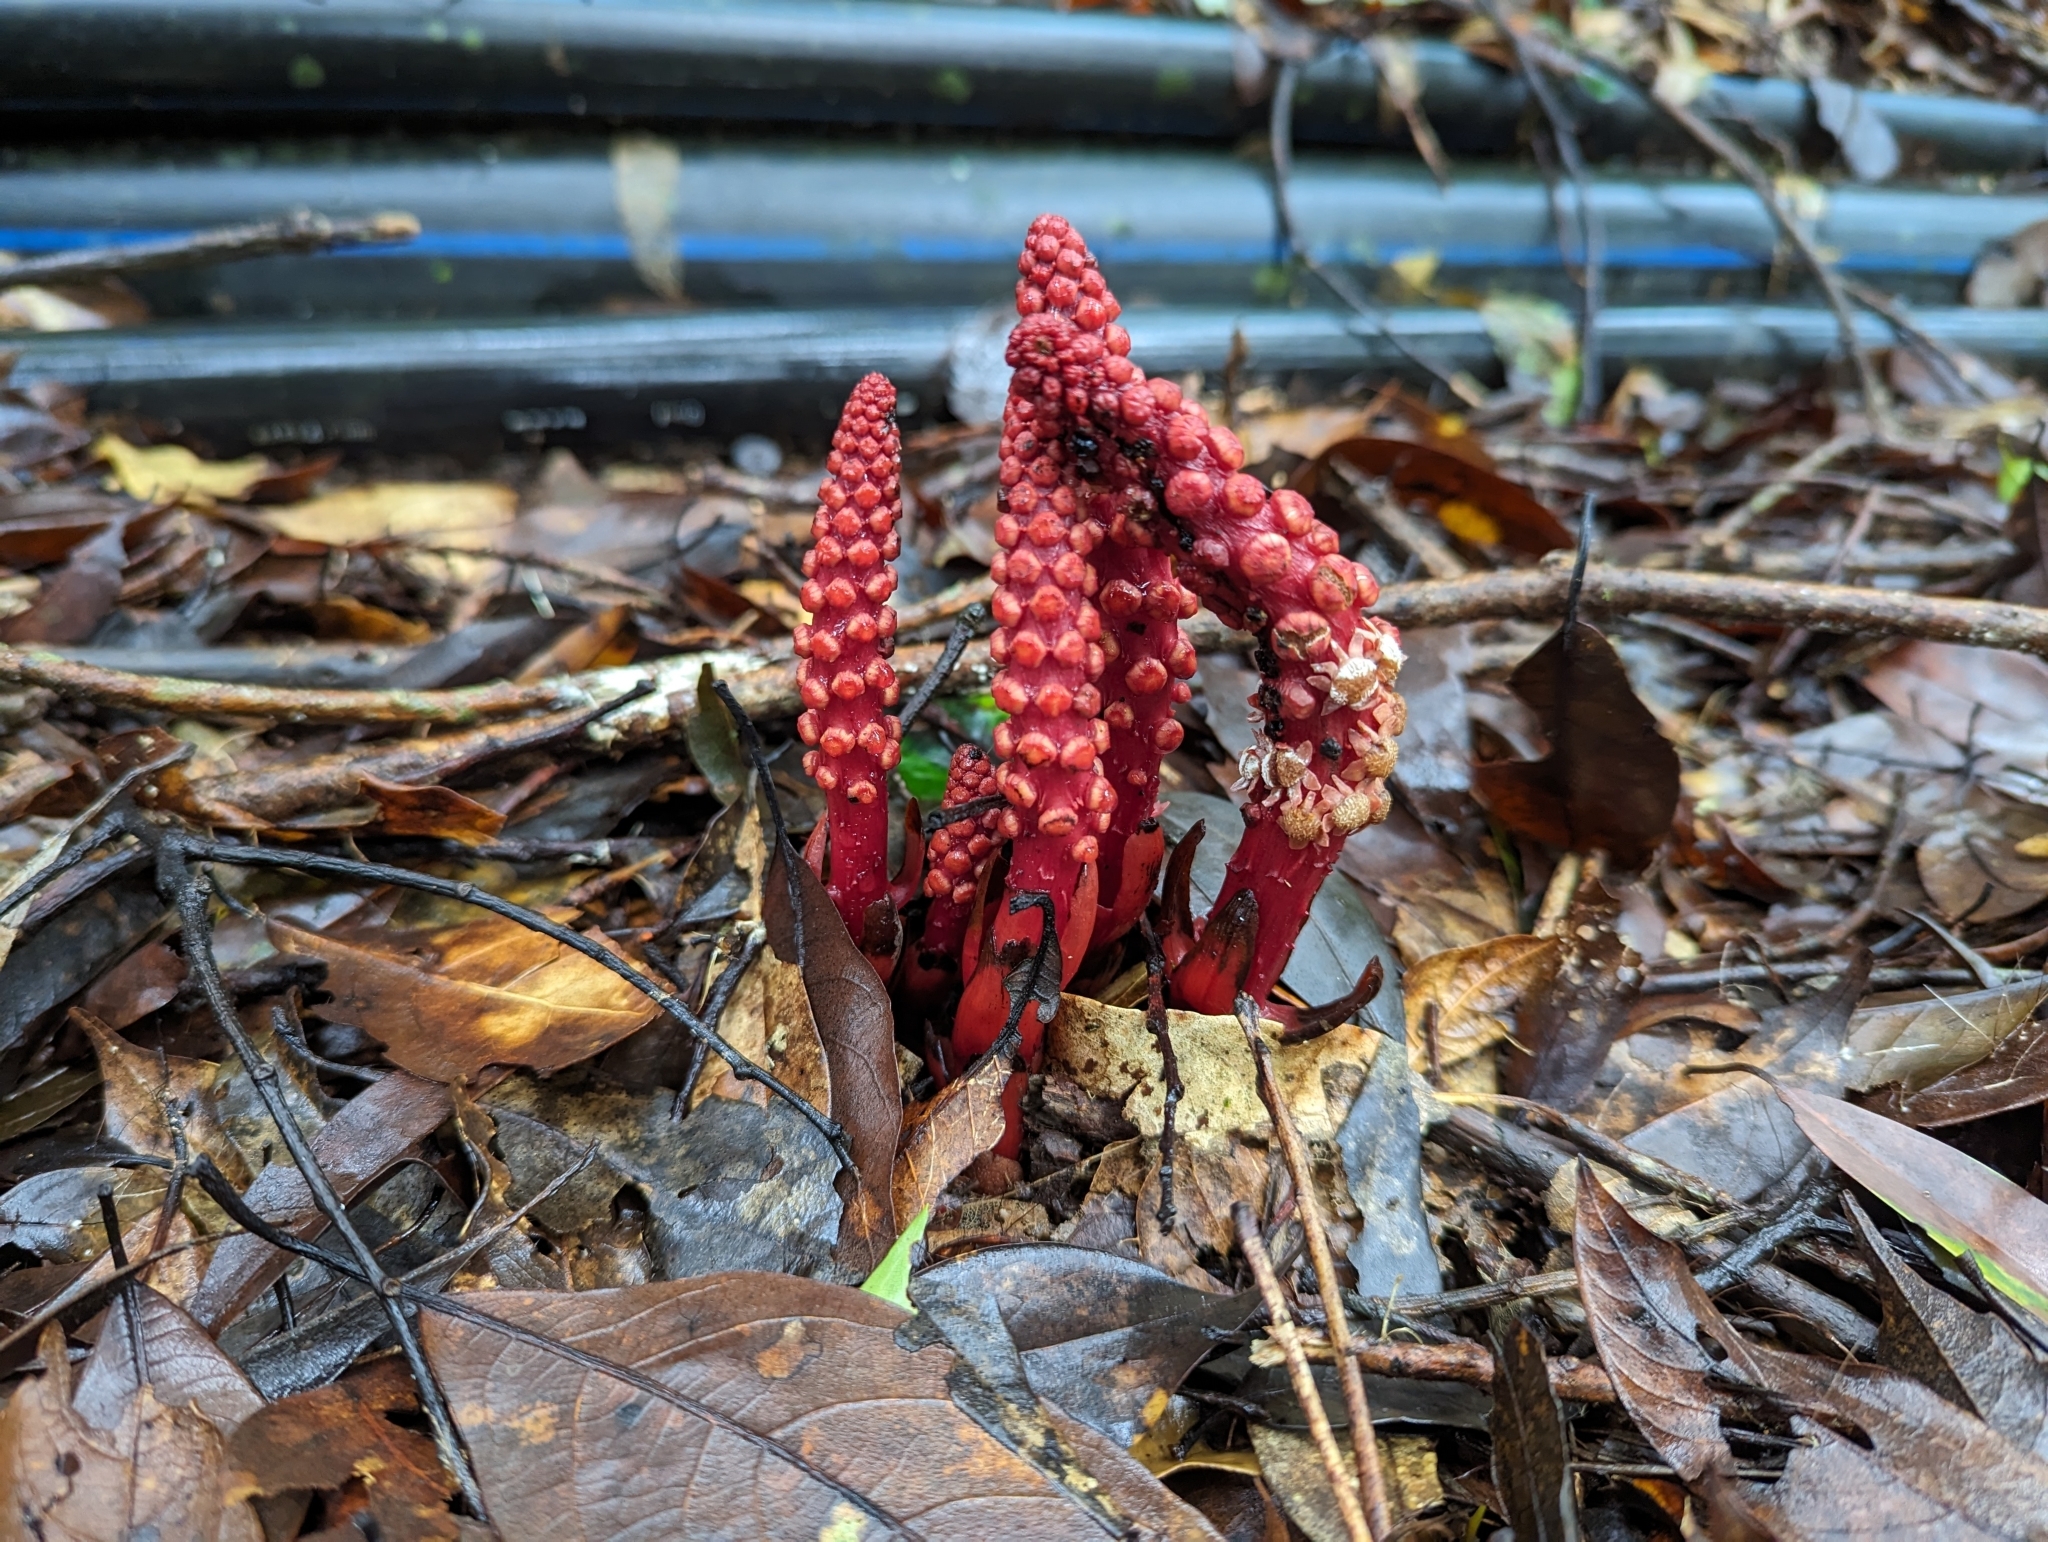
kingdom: Plantae
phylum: Tracheophyta
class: Magnoliopsida
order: Santalales
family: Balanophoraceae
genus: Balanophora
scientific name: Balanophora laxiflora
